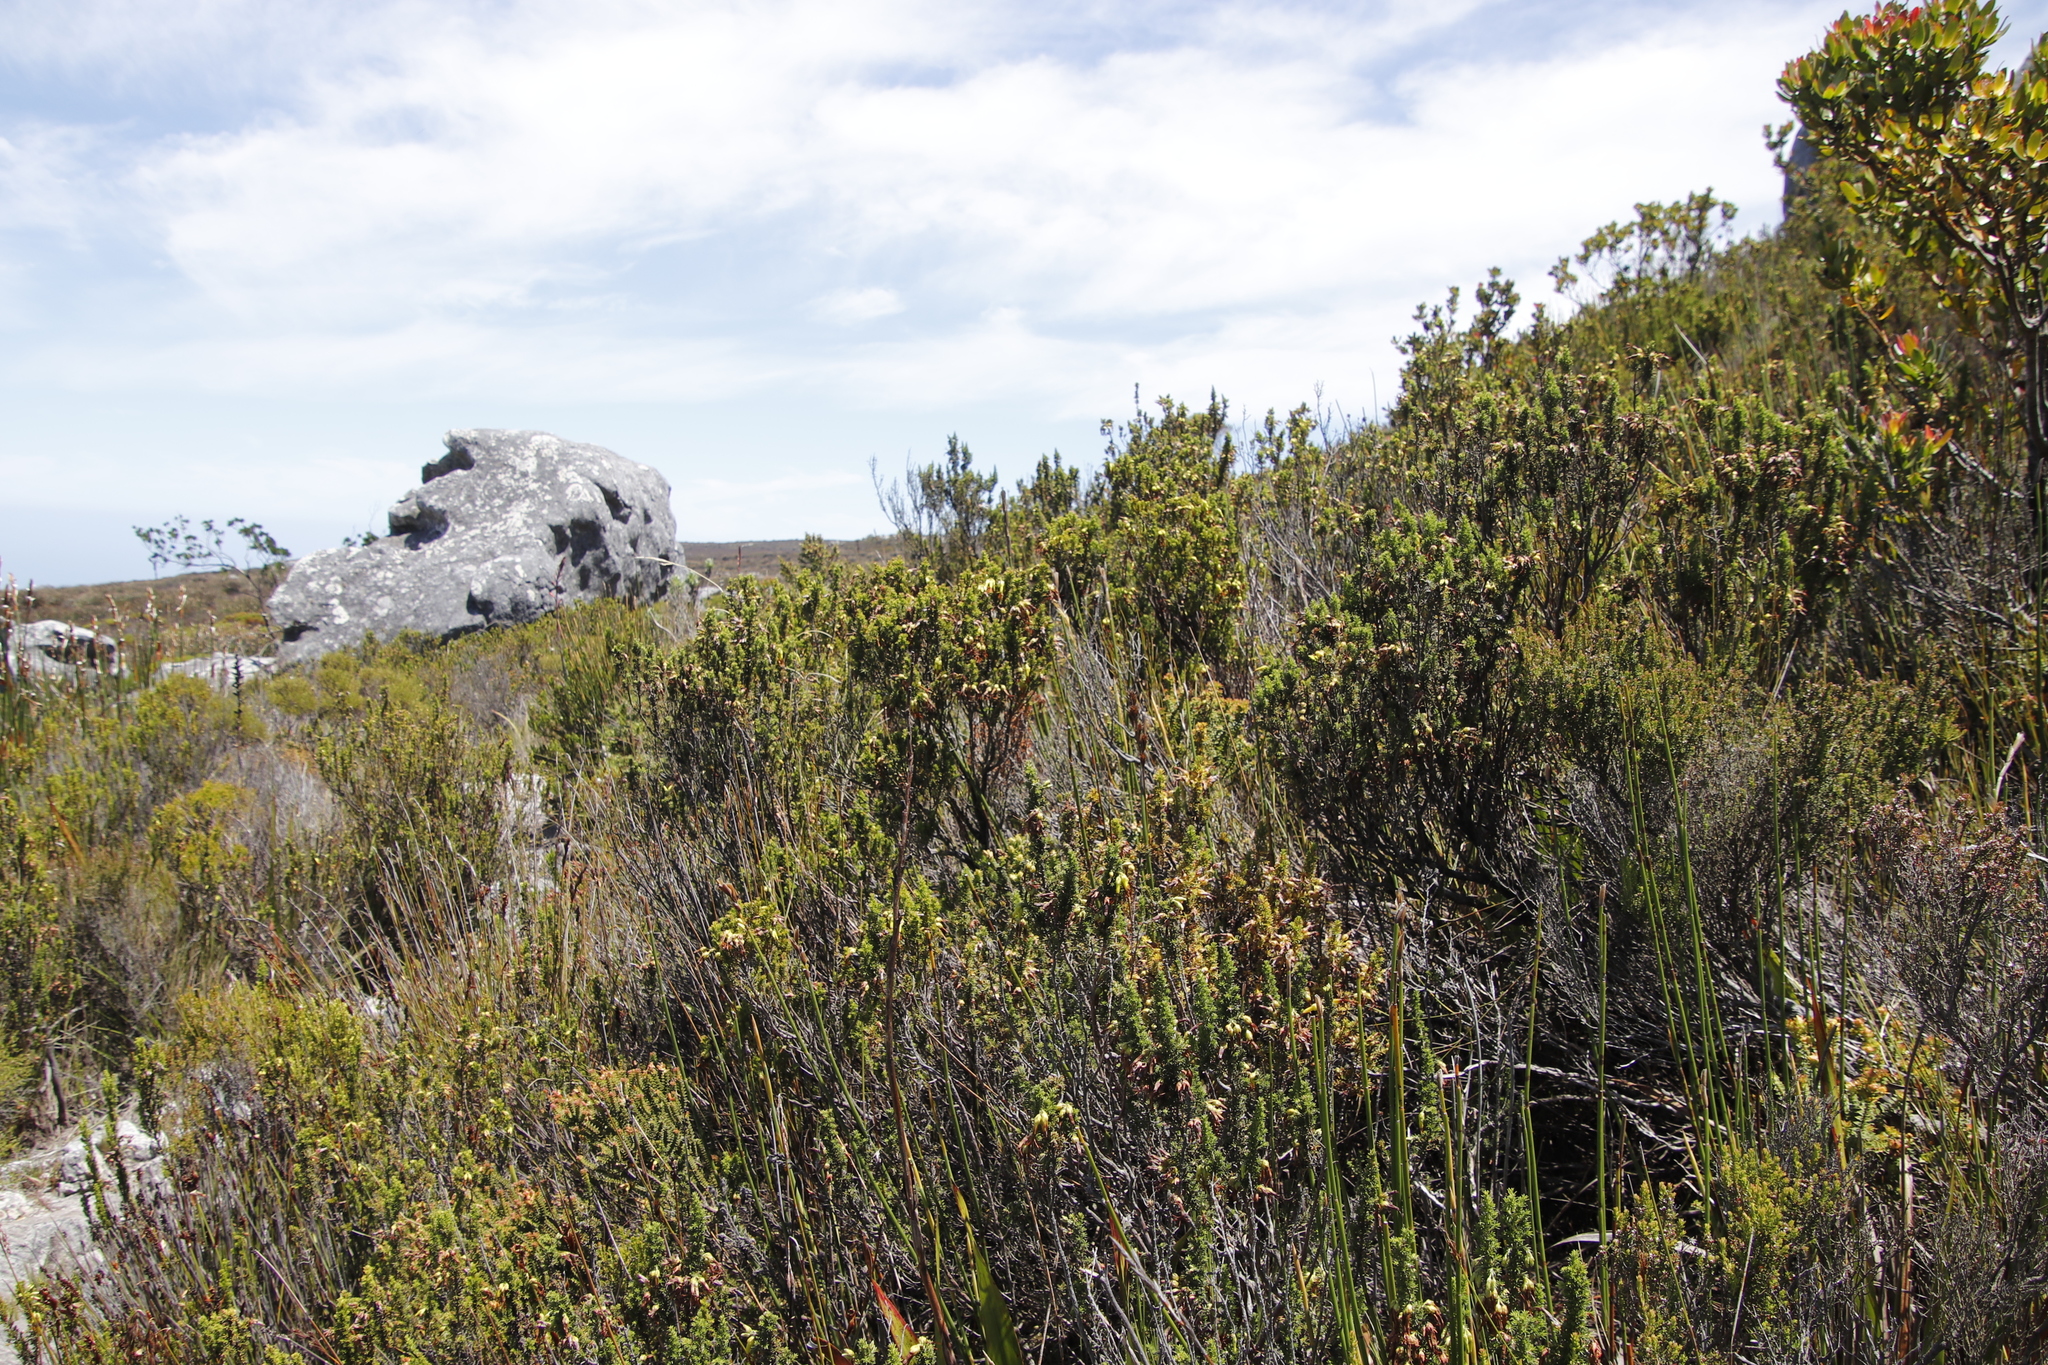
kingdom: Plantae
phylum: Tracheophyta
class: Magnoliopsida
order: Ericales
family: Ericaceae
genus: Erica
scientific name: Erica coccinea
